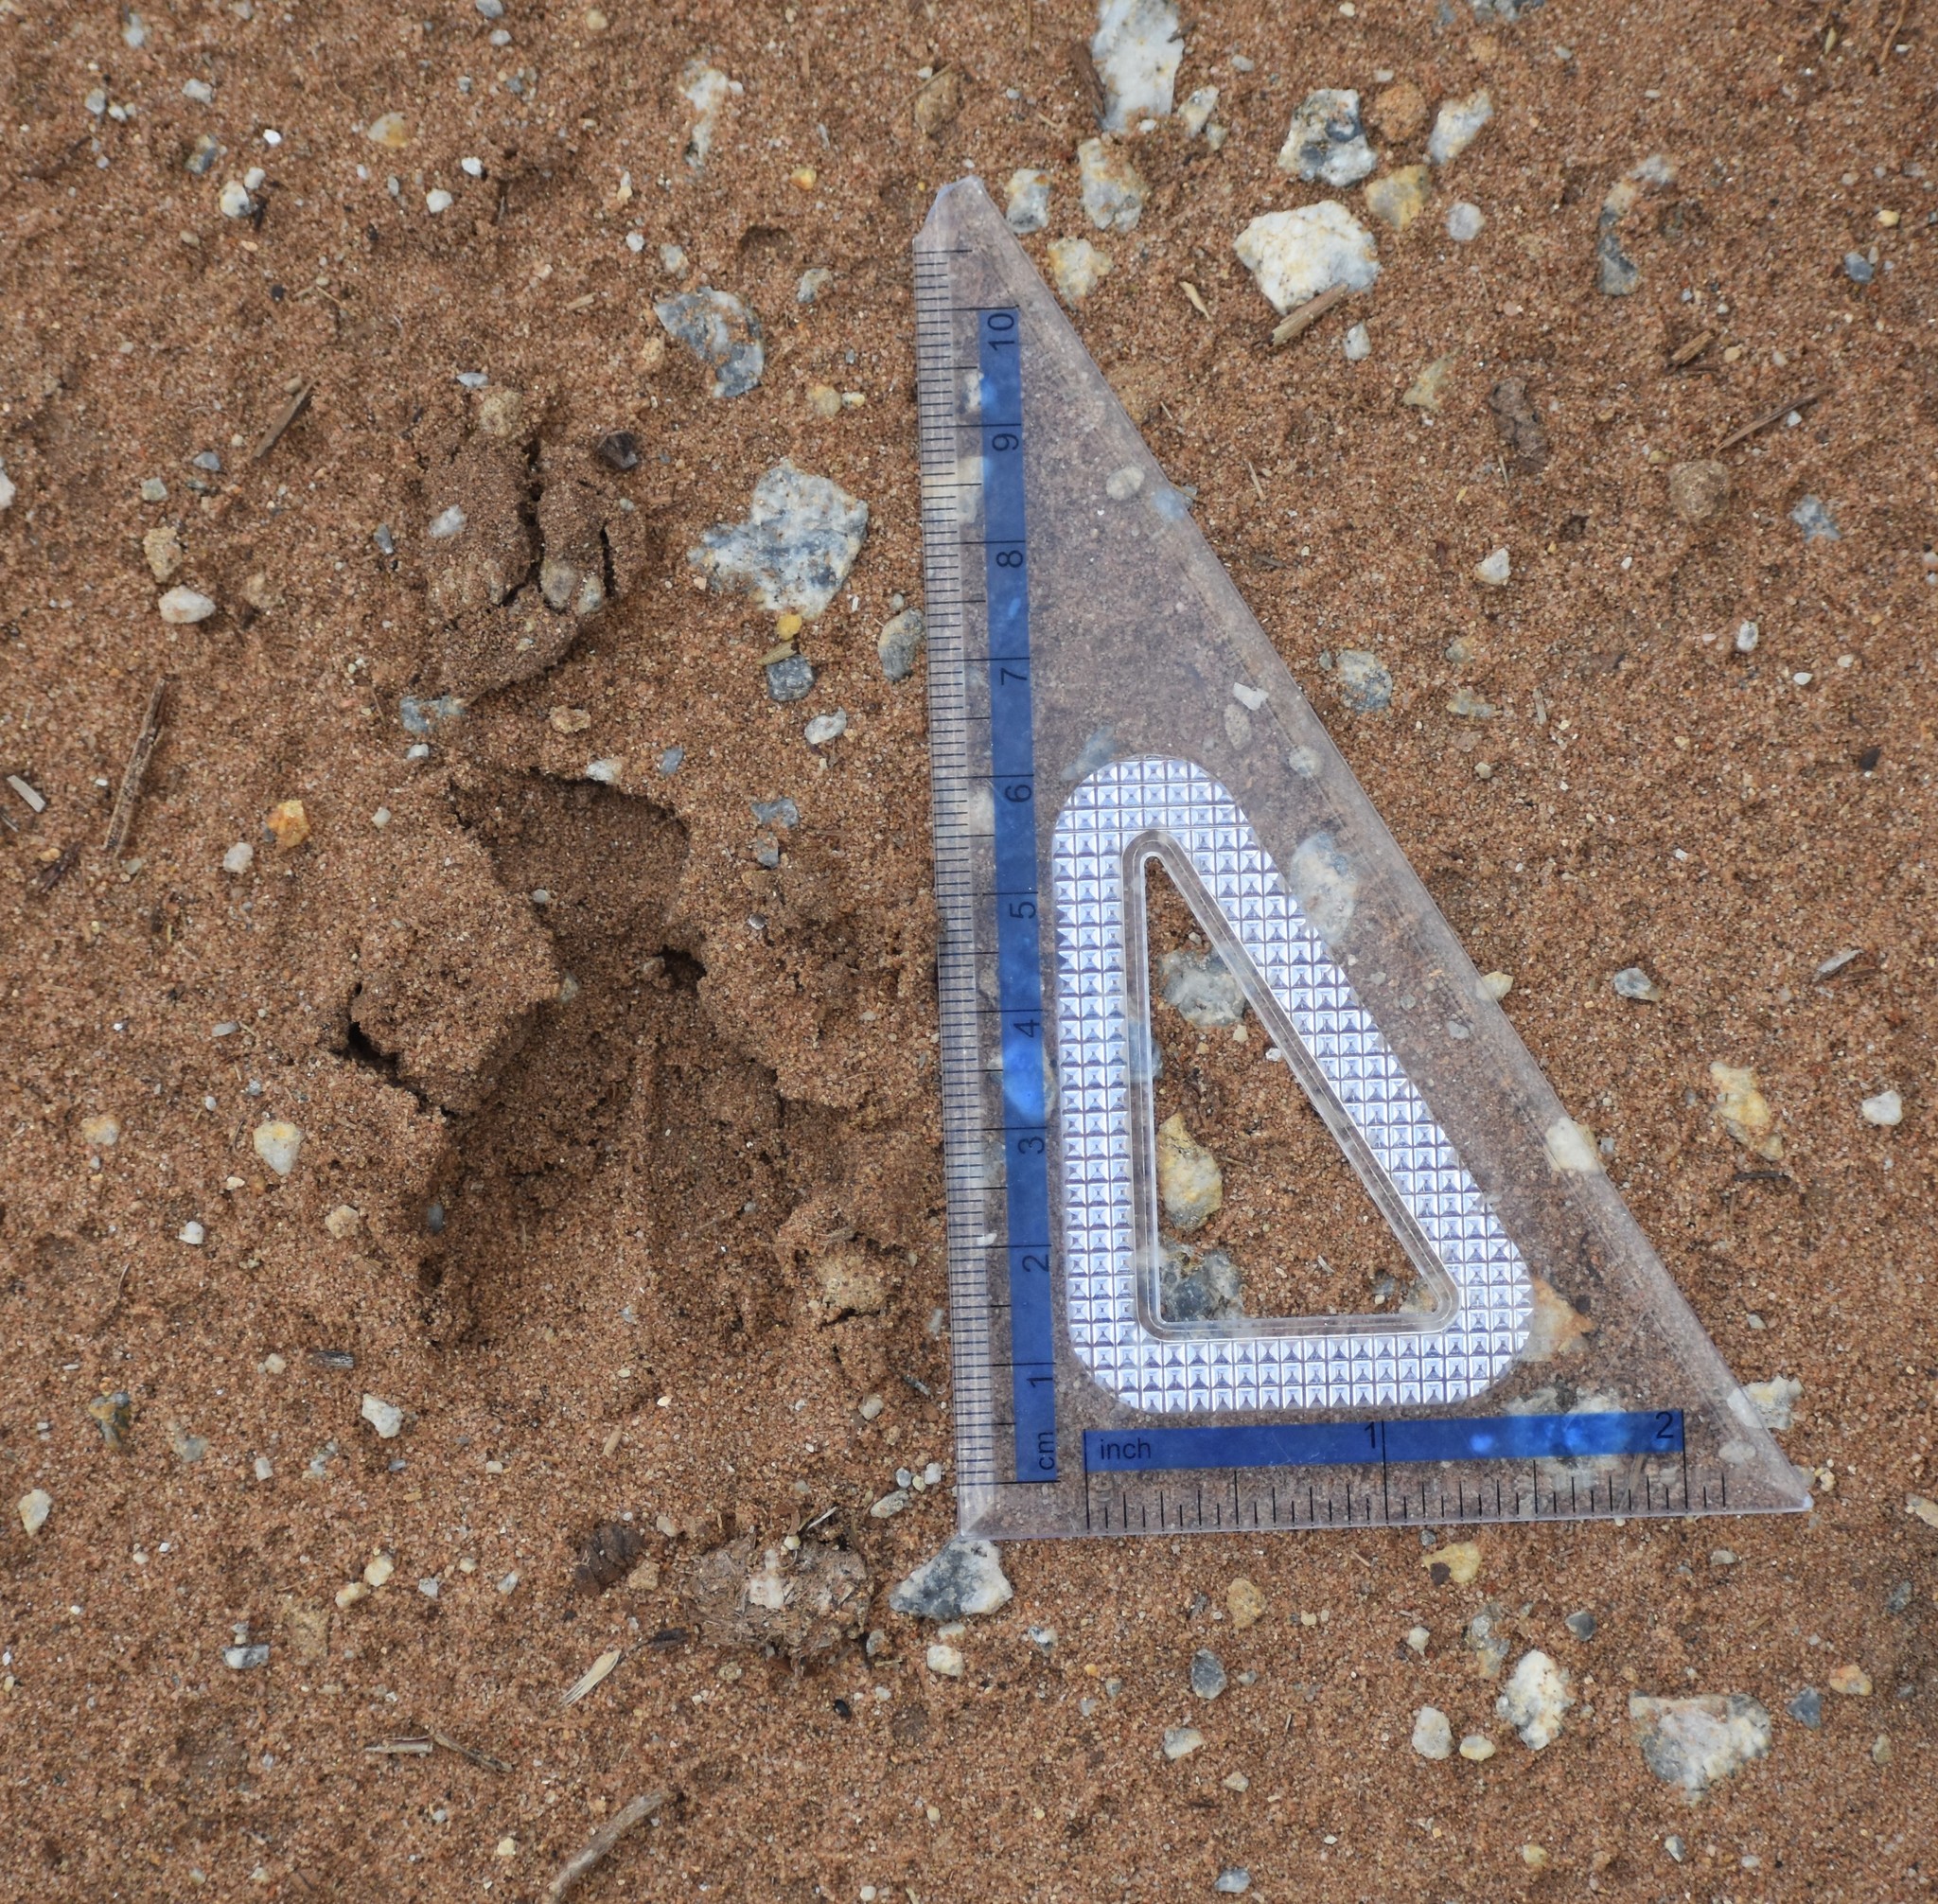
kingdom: Animalia
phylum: Chordata
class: Mammalia
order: Artiodactyla
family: Bovidae
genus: Tragelaphus
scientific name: Tragelaphus scriptus
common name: Bushbuck
